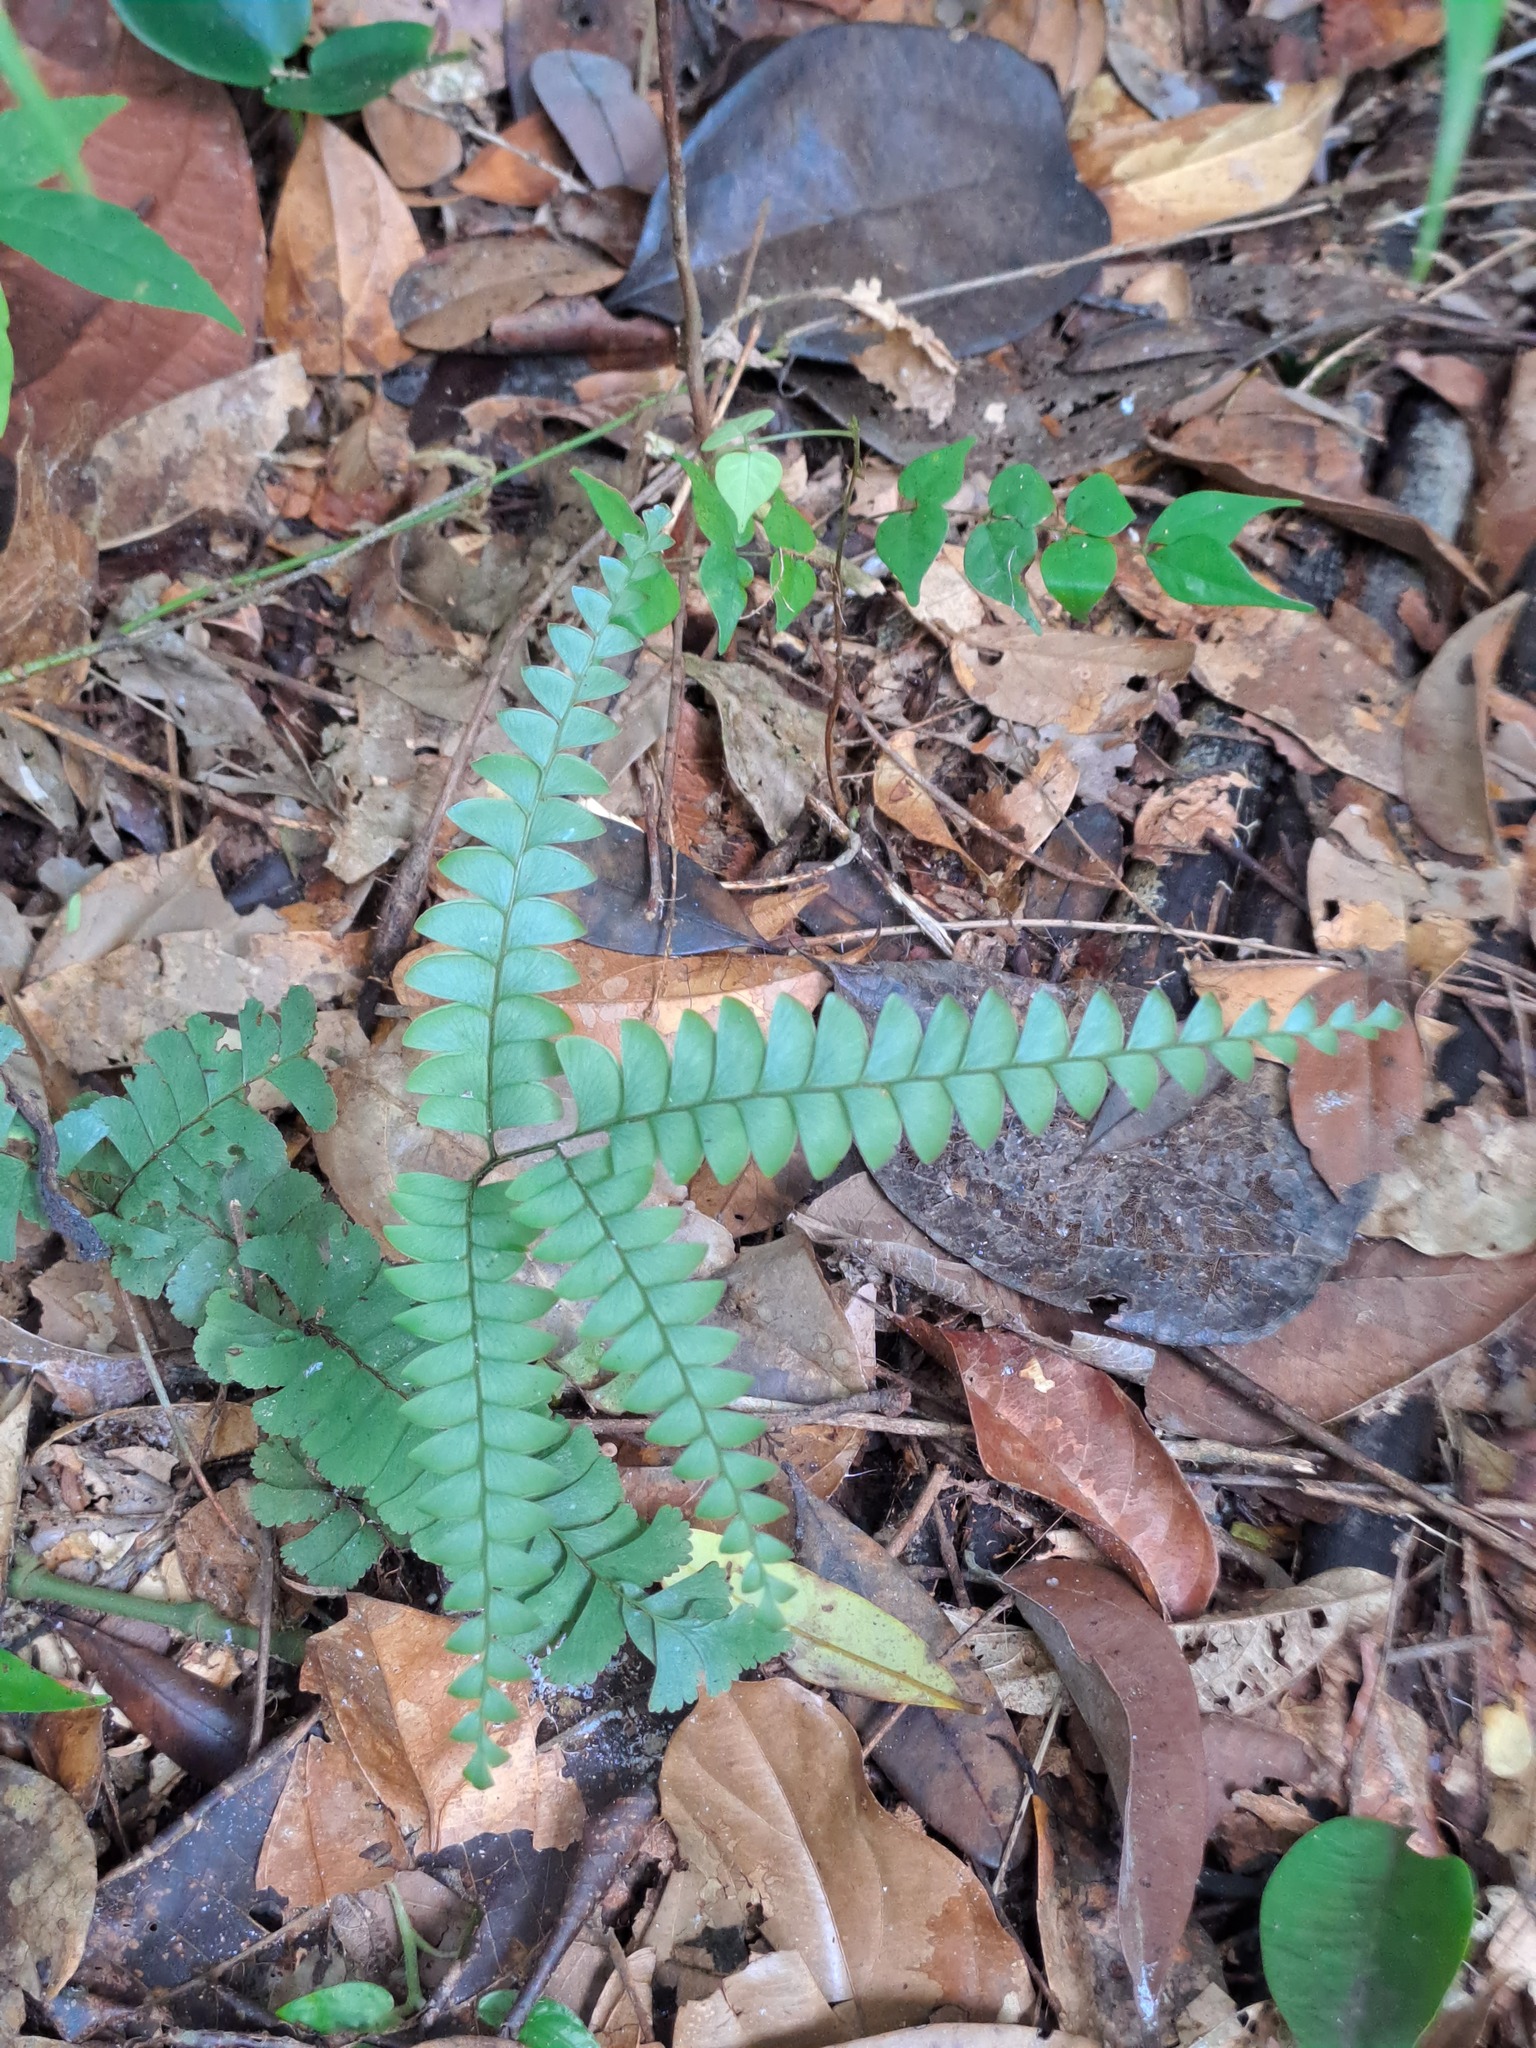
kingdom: Plantae
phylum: Tracheophyta
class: Polypodiopsida
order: Polypodiales
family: Lindsaeaceae
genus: Lindsaea
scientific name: Lindsaea divaricata
